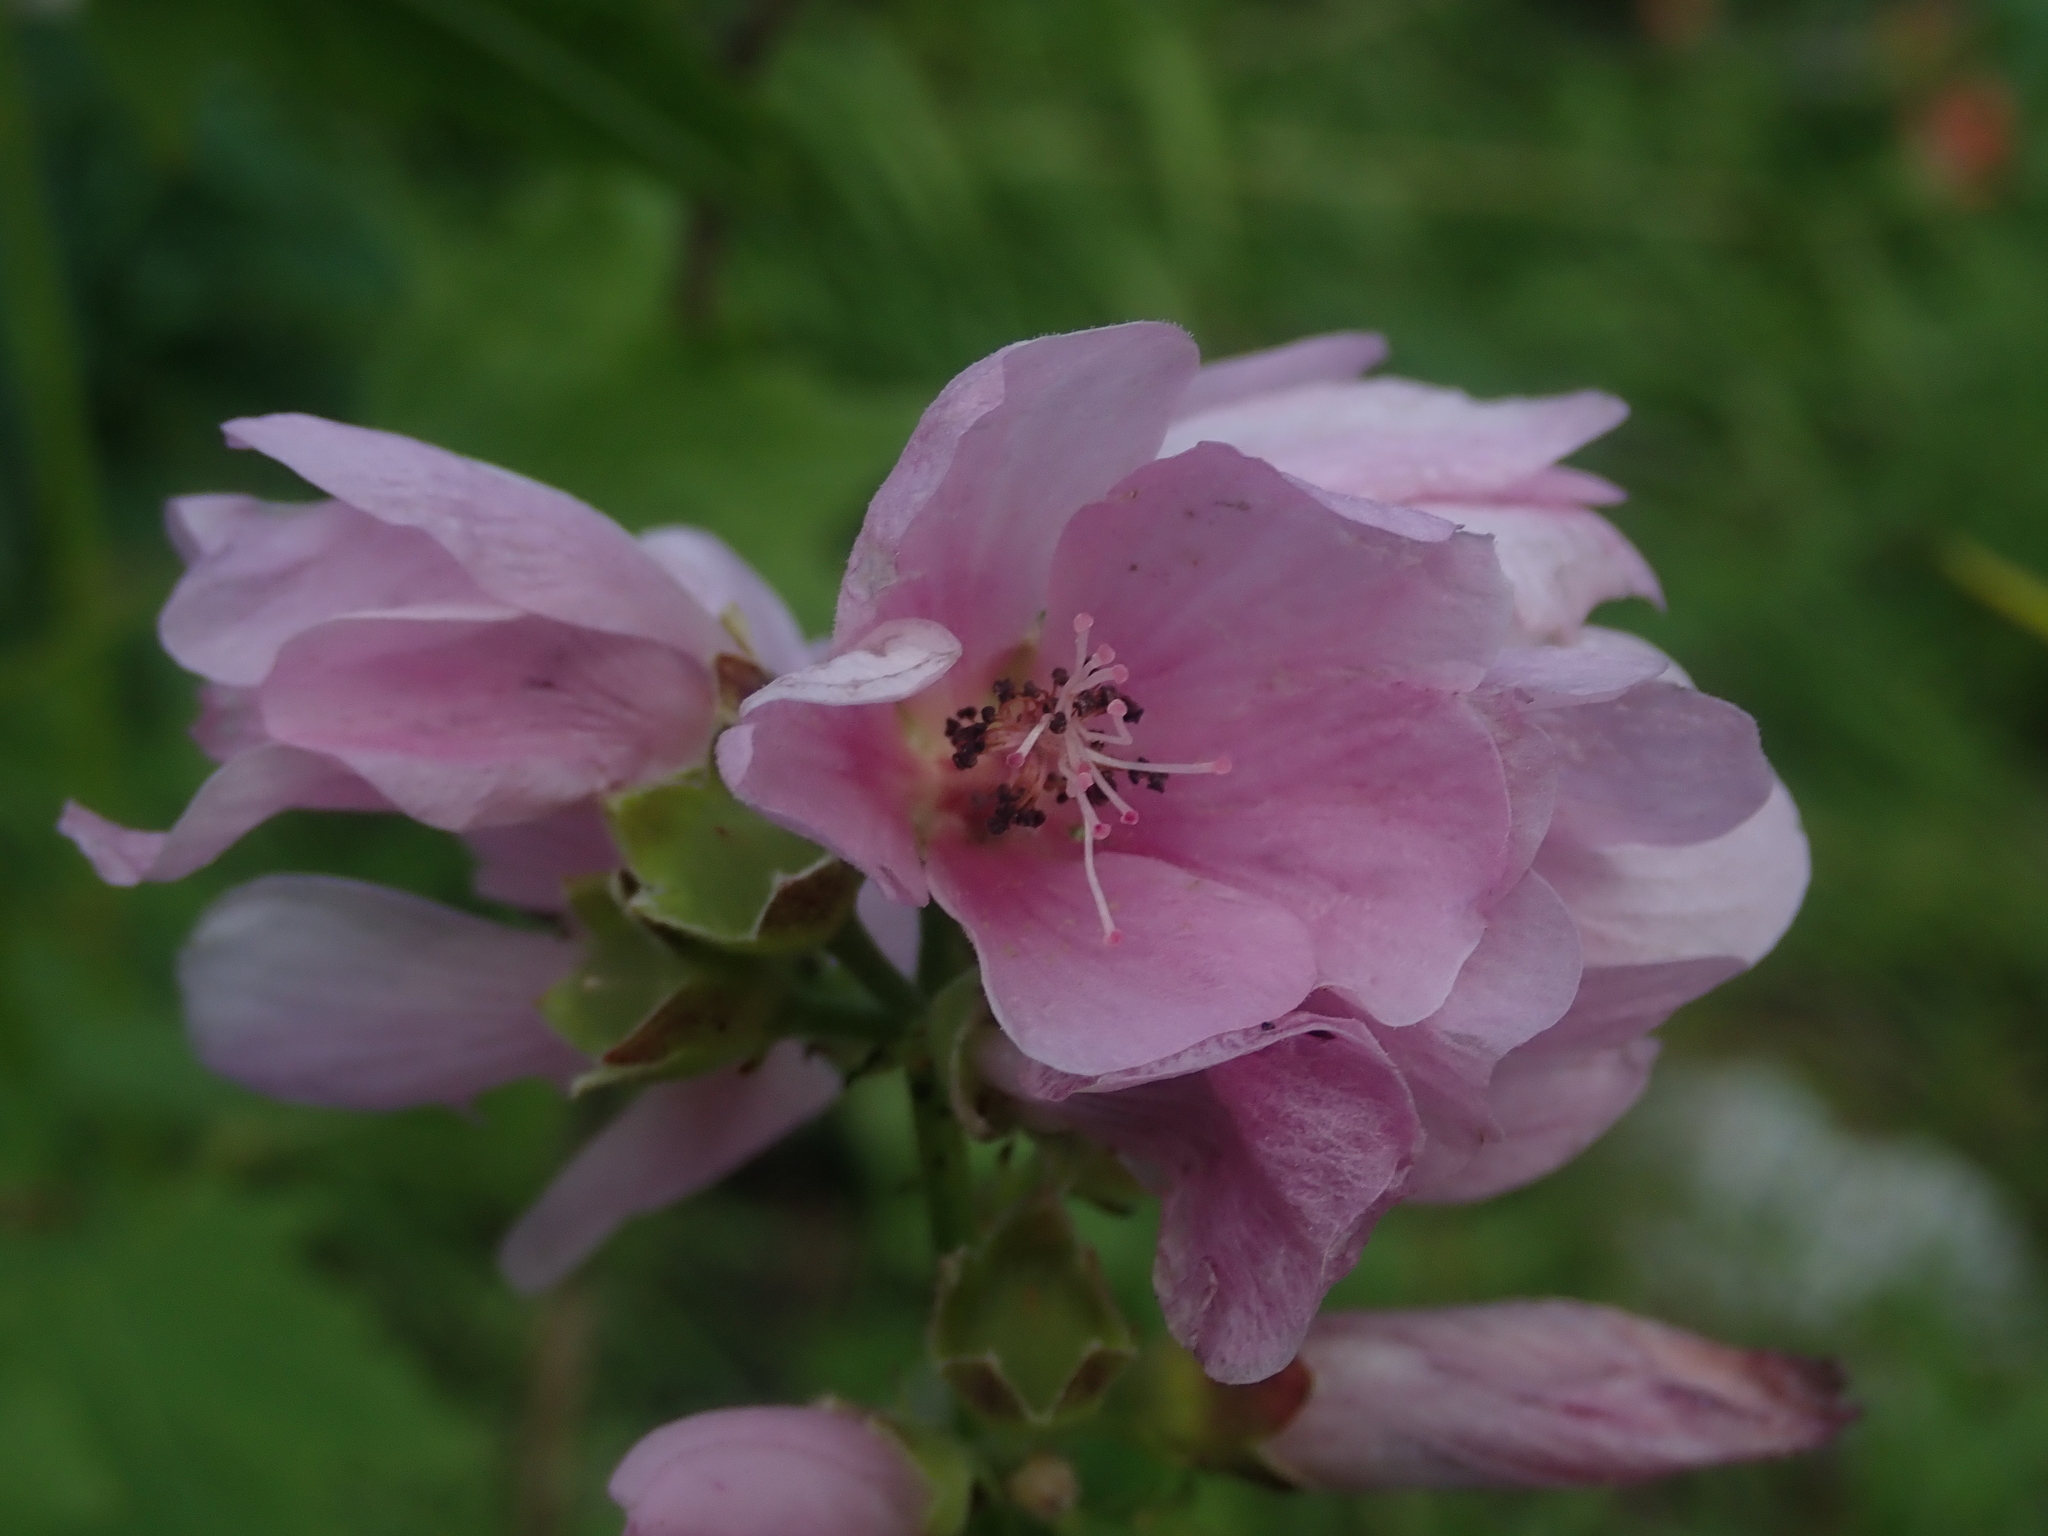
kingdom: Plantae
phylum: Tracheophyta
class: Magnoliopsida
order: Malvales
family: Malvaceae
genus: Iliamna
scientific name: Iliamna rivularis
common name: Wild hollyhock
